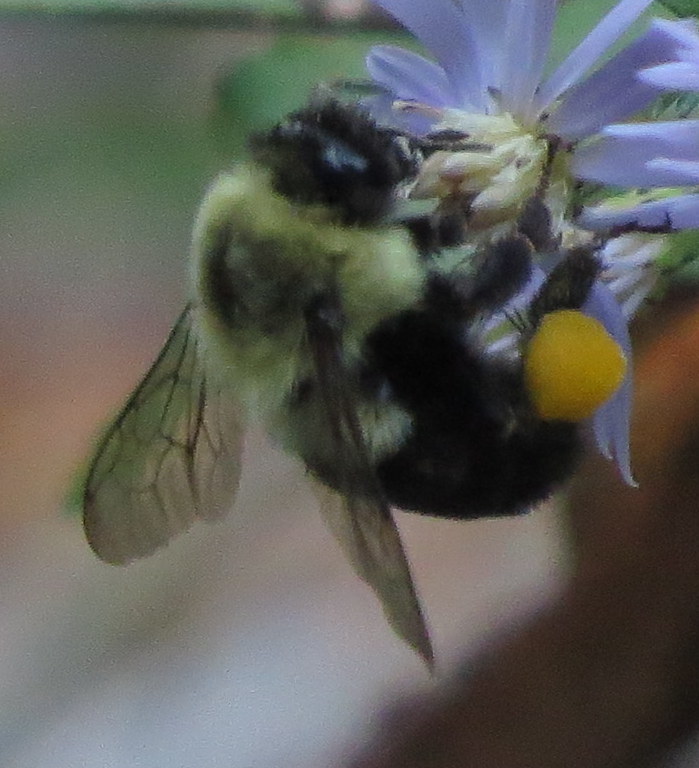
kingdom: Animalia
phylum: Arthropoda
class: Insecta
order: Hymenoptera
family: Apidae
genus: Bombus
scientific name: Bombus impatiens
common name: Common eastern bumble bee
